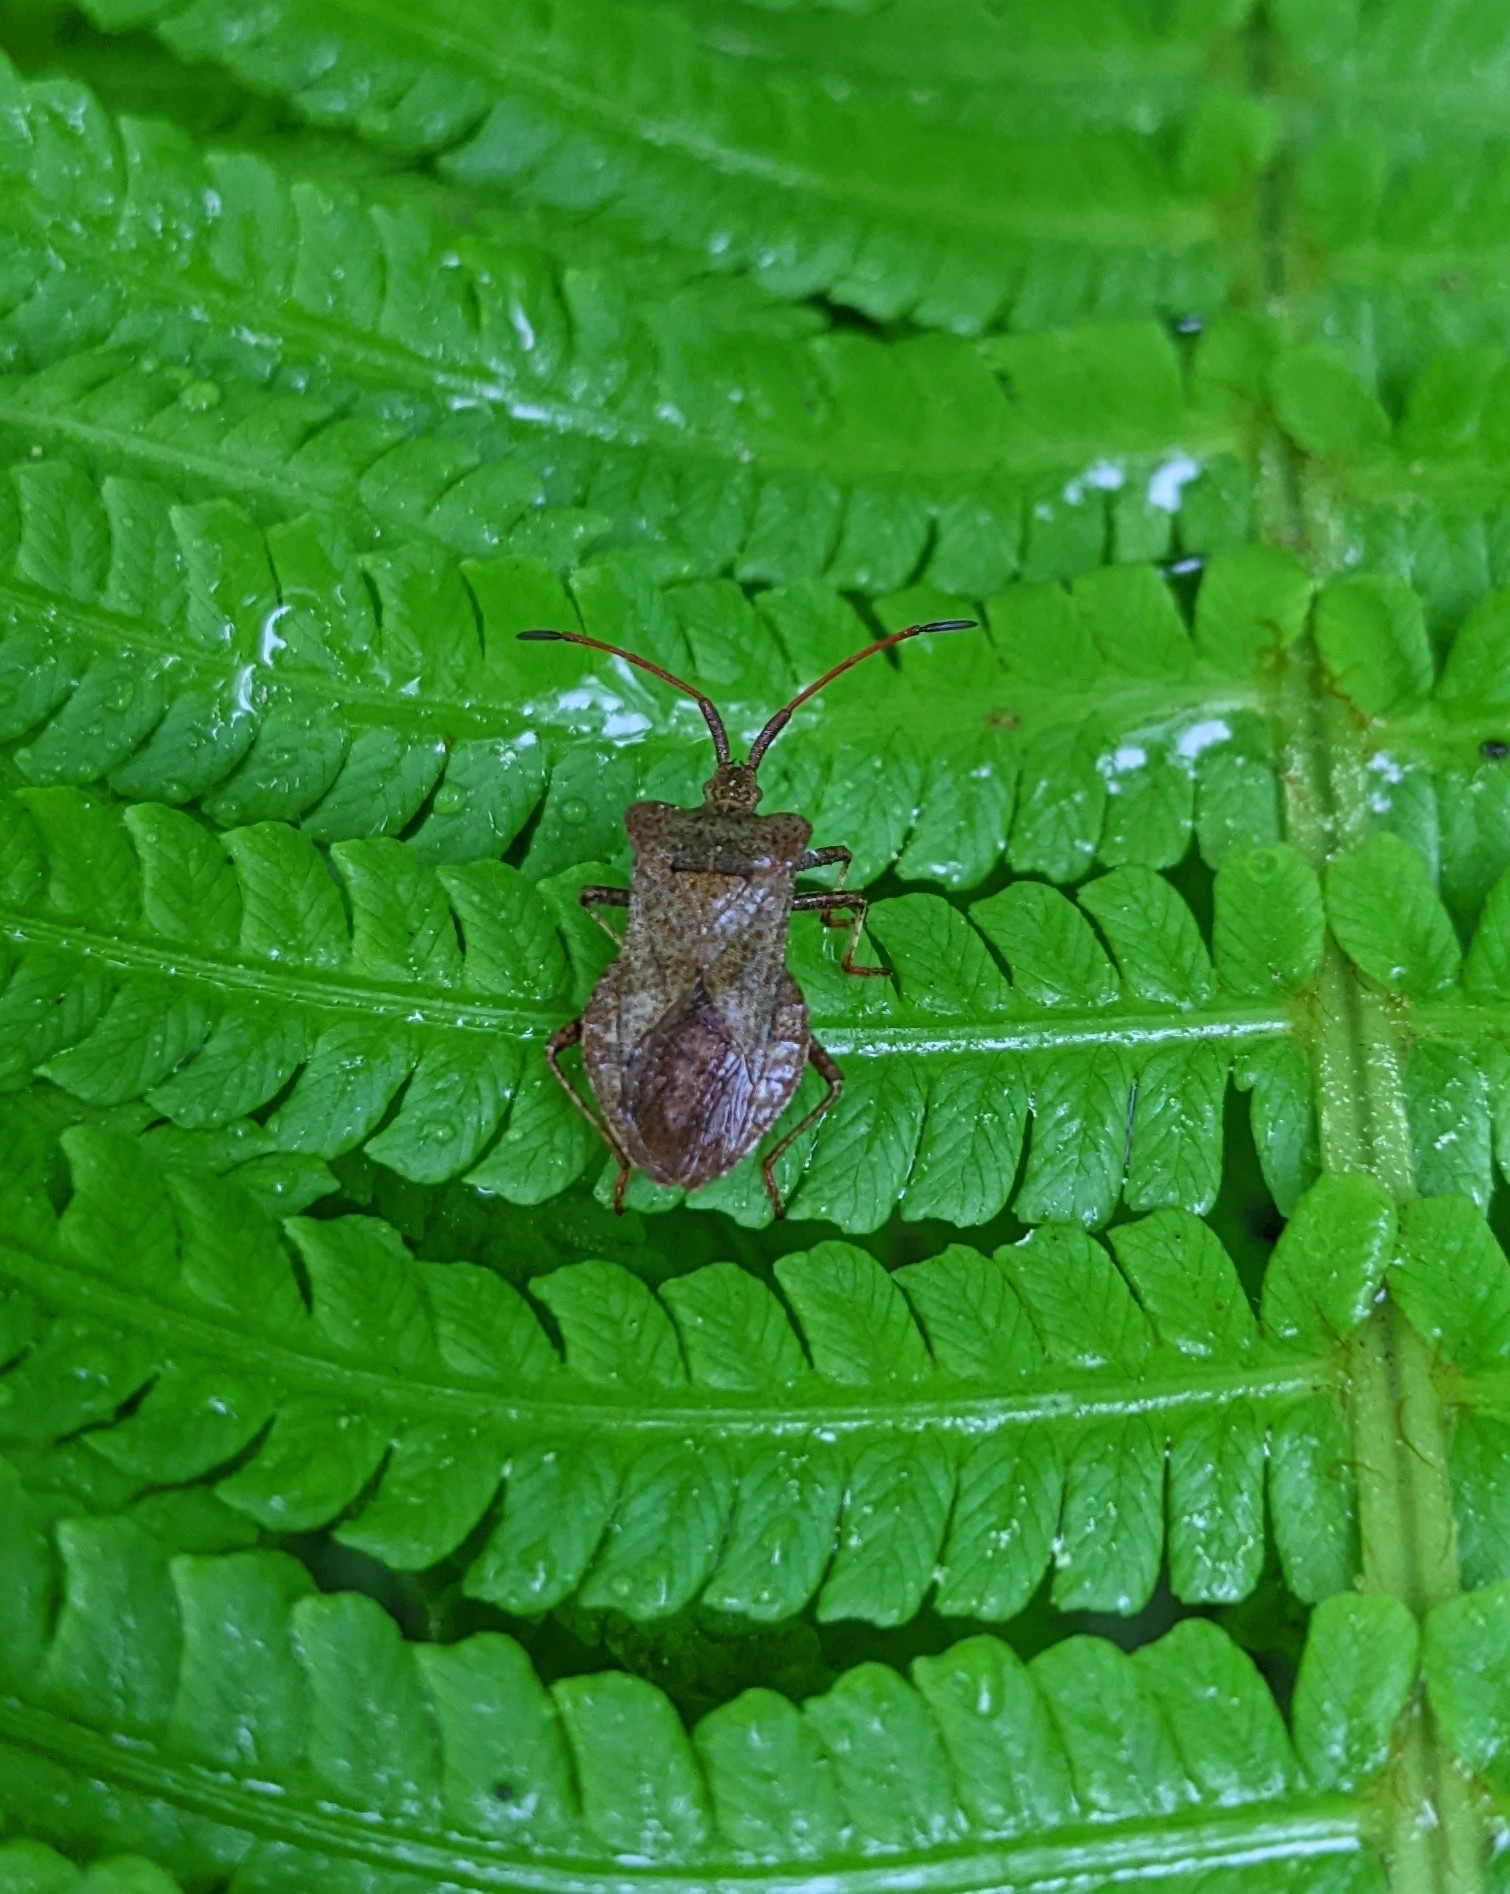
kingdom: Animalia
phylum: Arthropoda
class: Insecta
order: Hemiptera
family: Coreidae
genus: Coreus
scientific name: Coreus marginatus
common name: Dock bug
